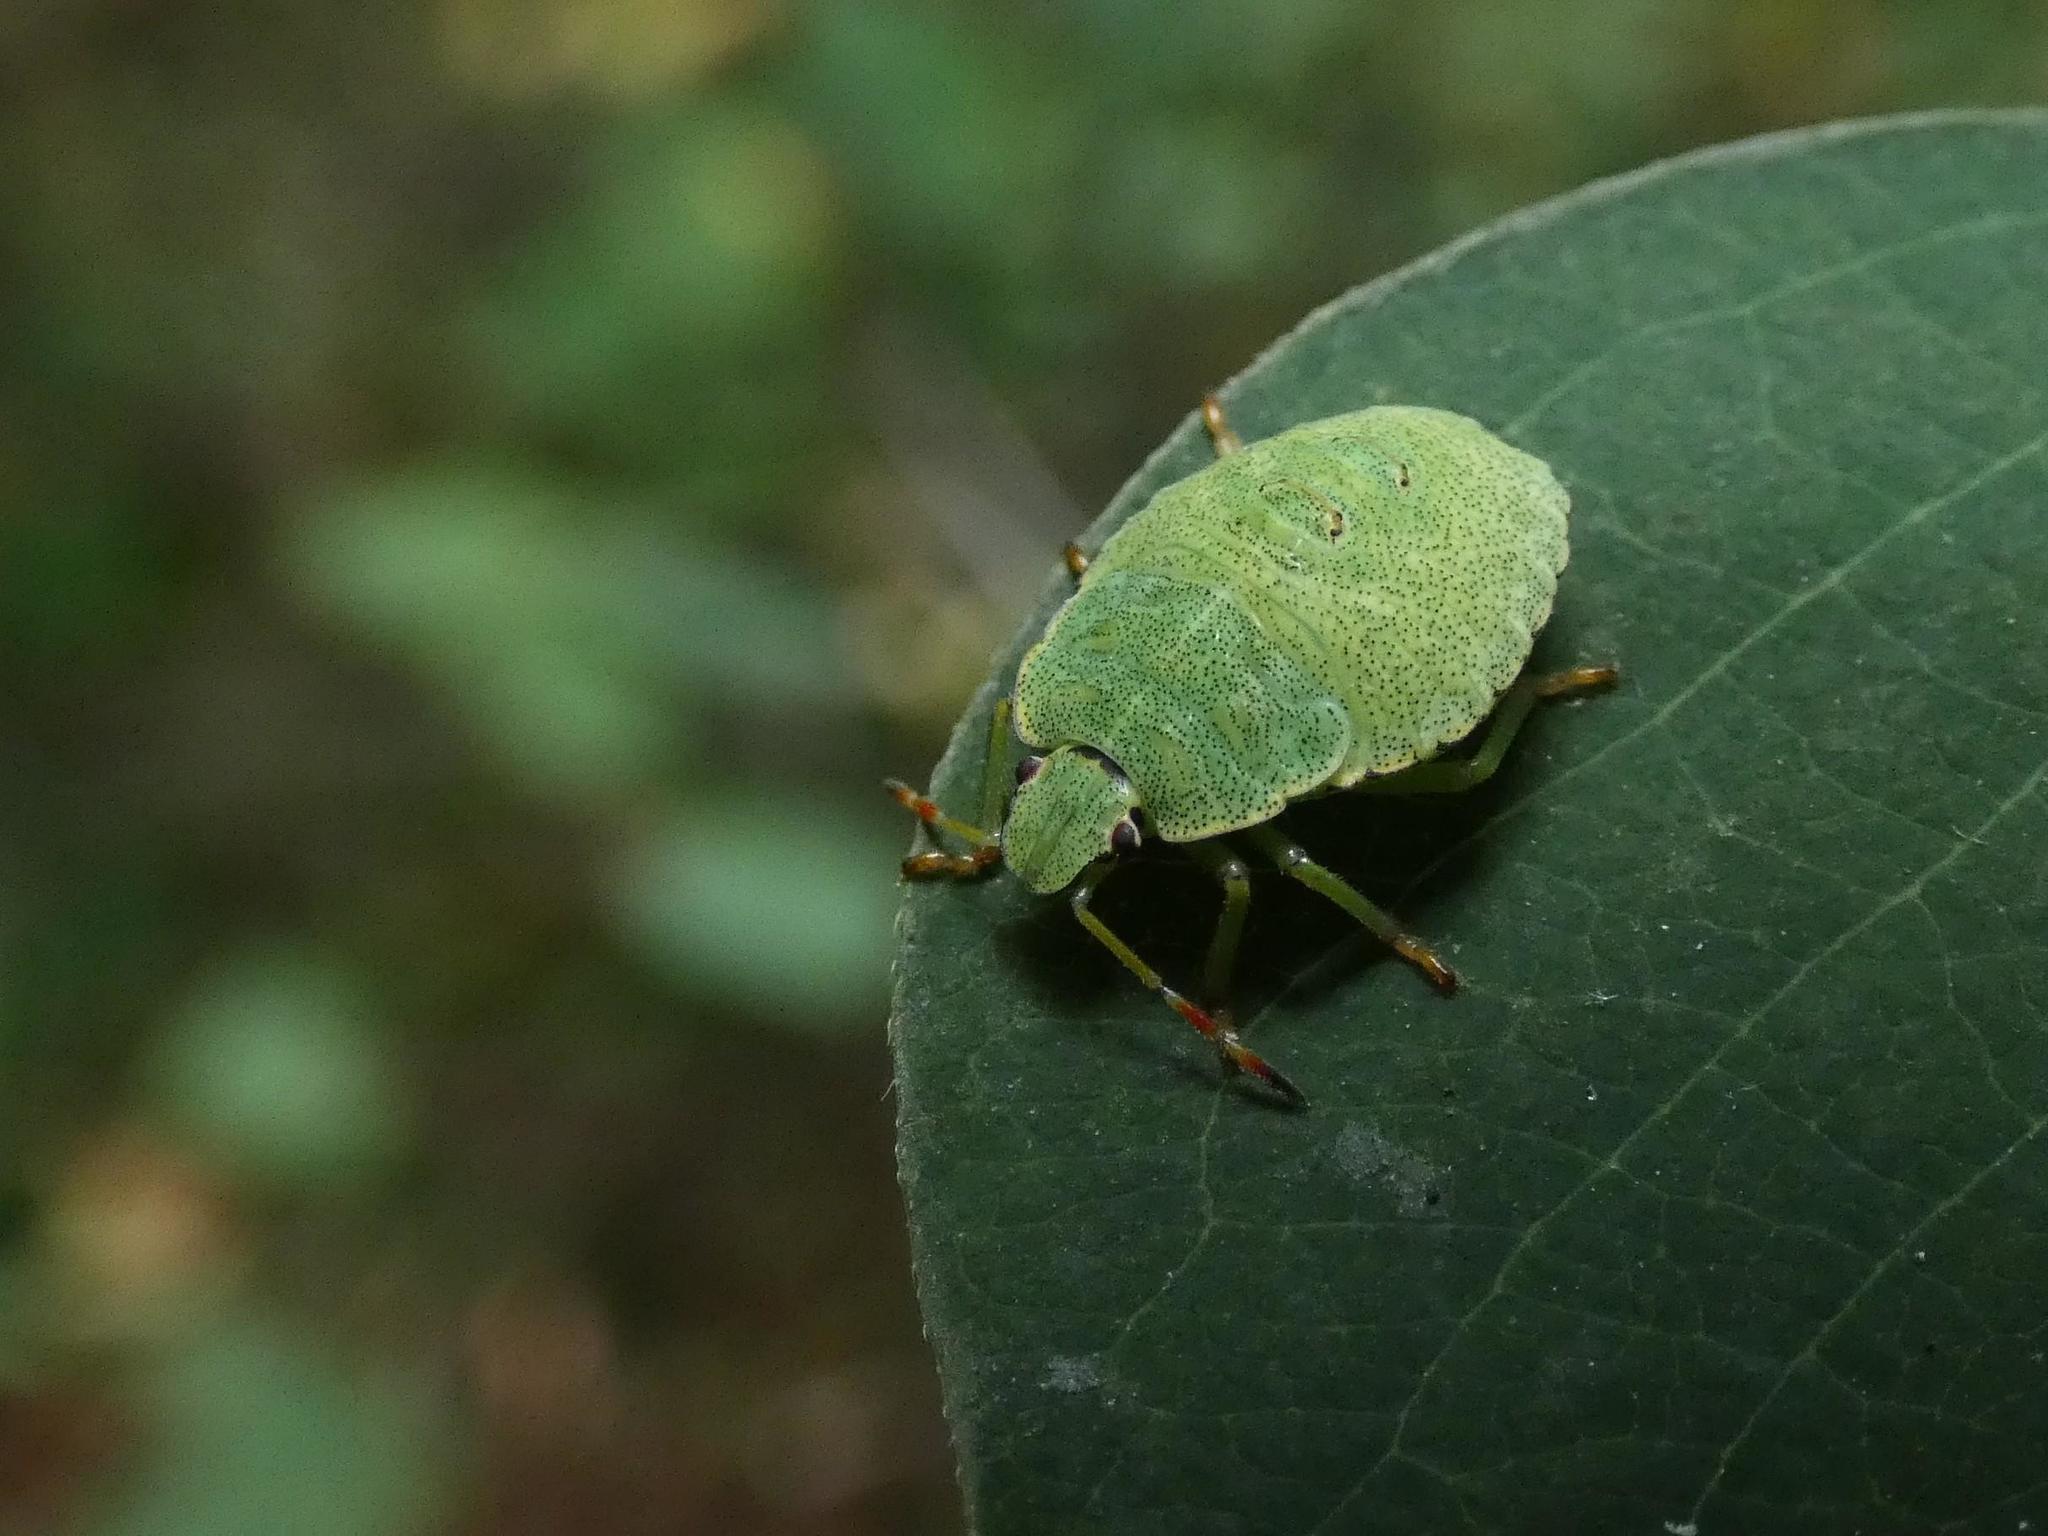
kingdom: Animalia
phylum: Arthropoda
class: Insecta
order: Hemiptera
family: Pentatomidae
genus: Palomena
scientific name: Palomena prasina
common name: Green shieldbug
